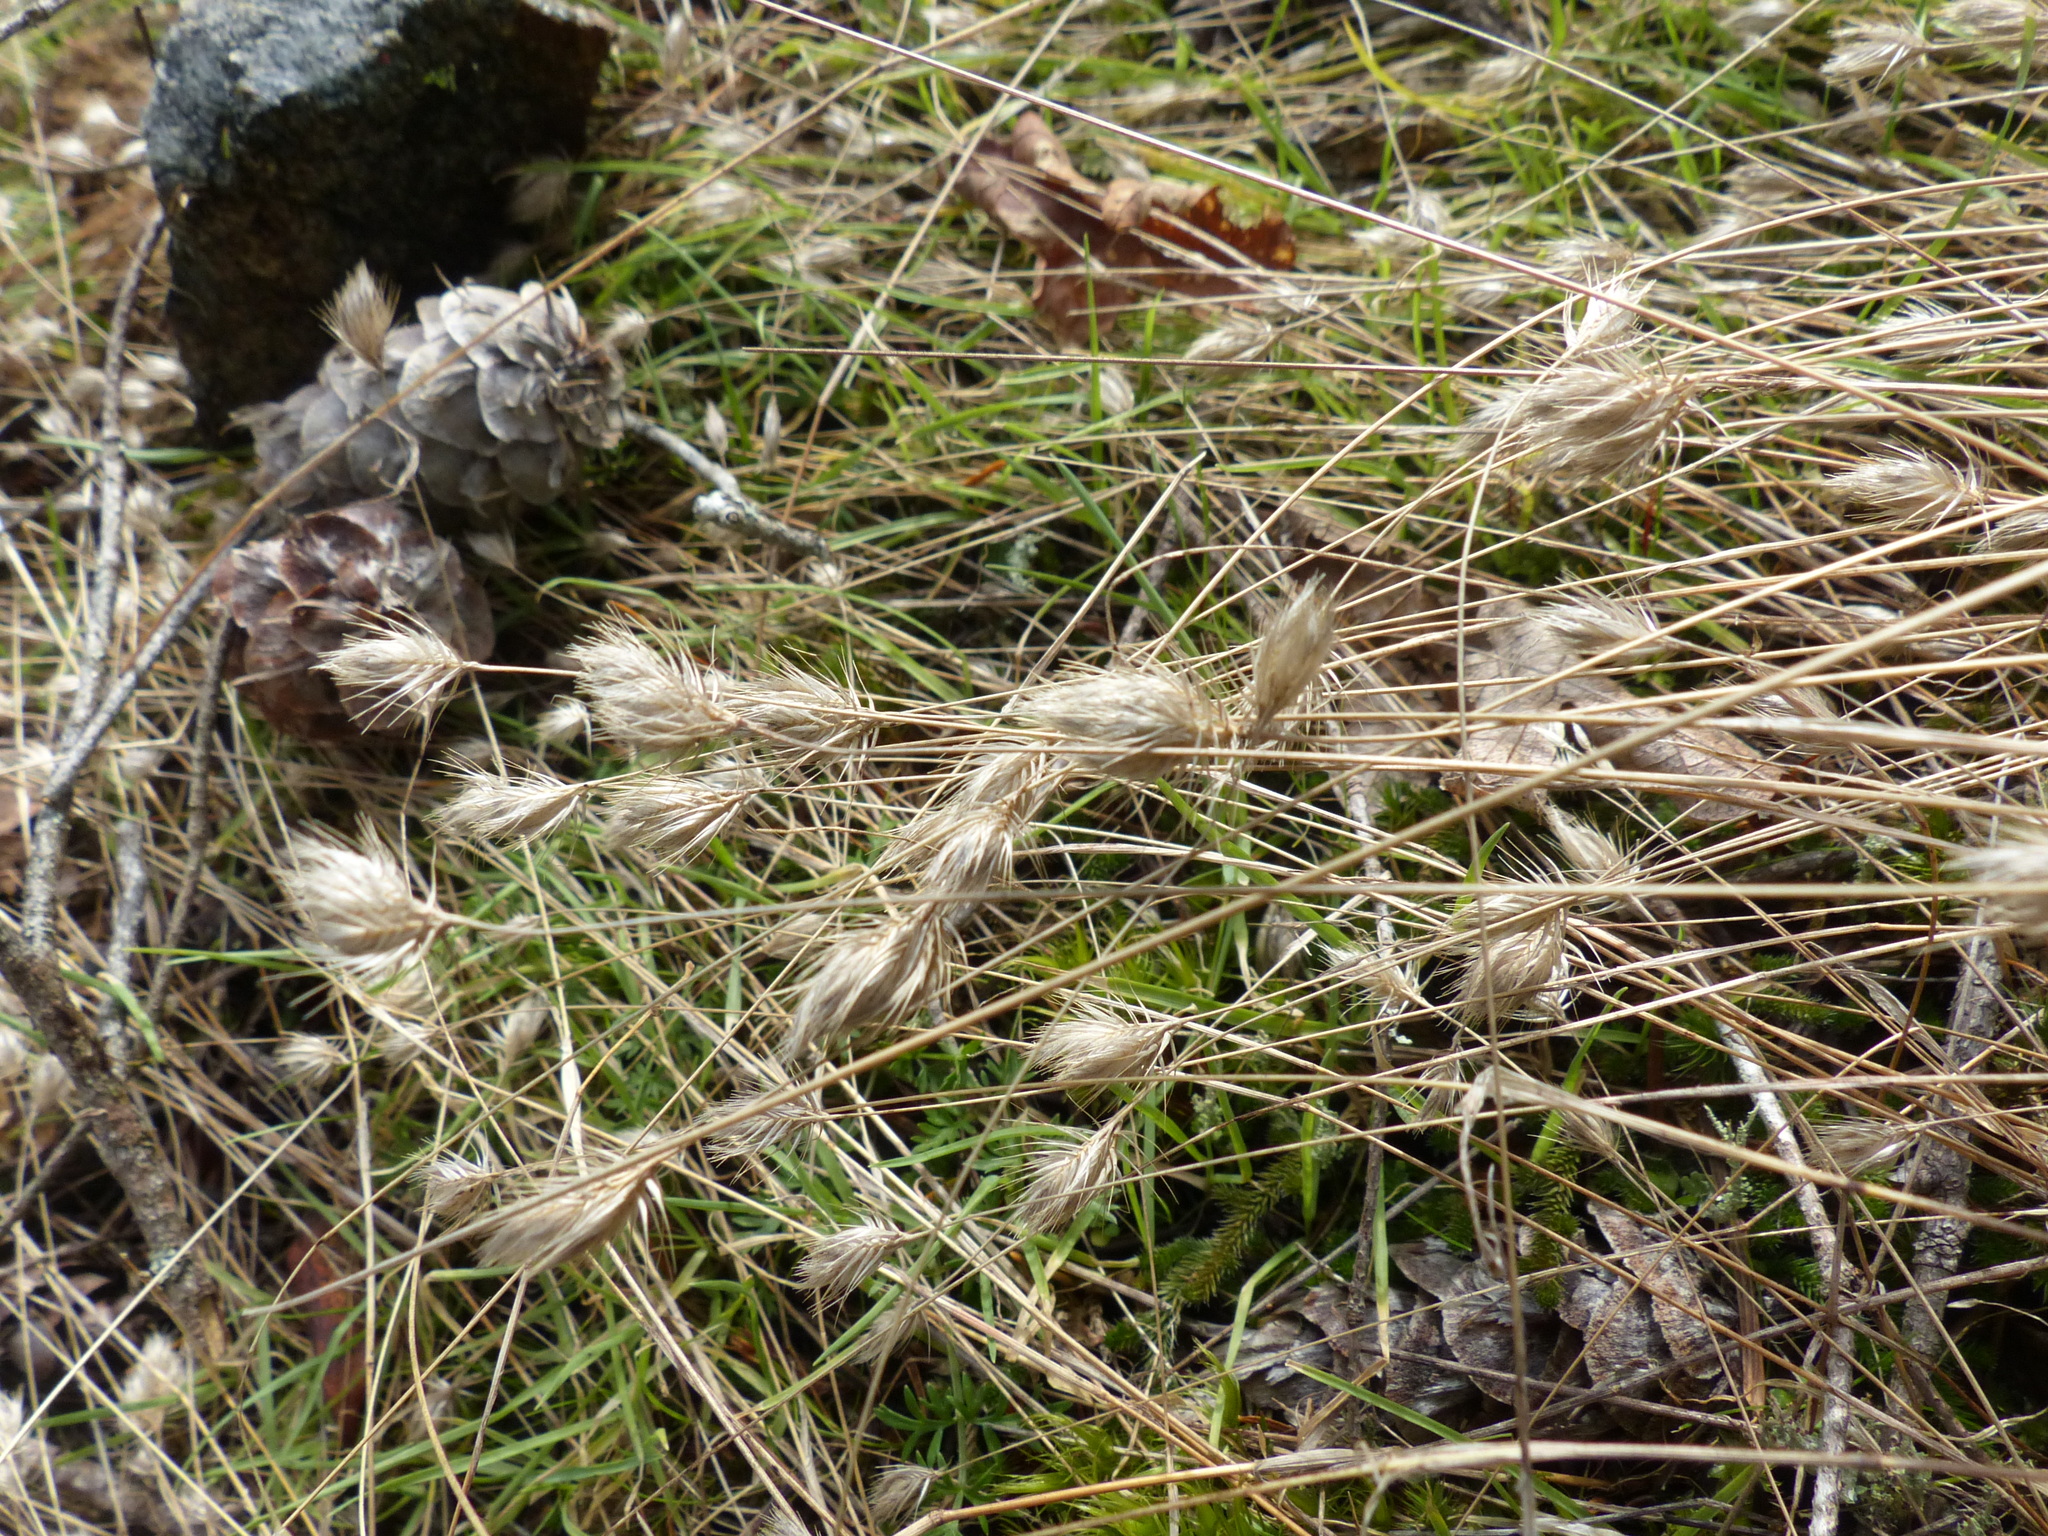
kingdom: Plantae
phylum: Tracheophyta
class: Liliopsida
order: Poales
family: Poaceae
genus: Cynosurus
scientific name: Cynosurus echinatus
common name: Rough dog's-tail
